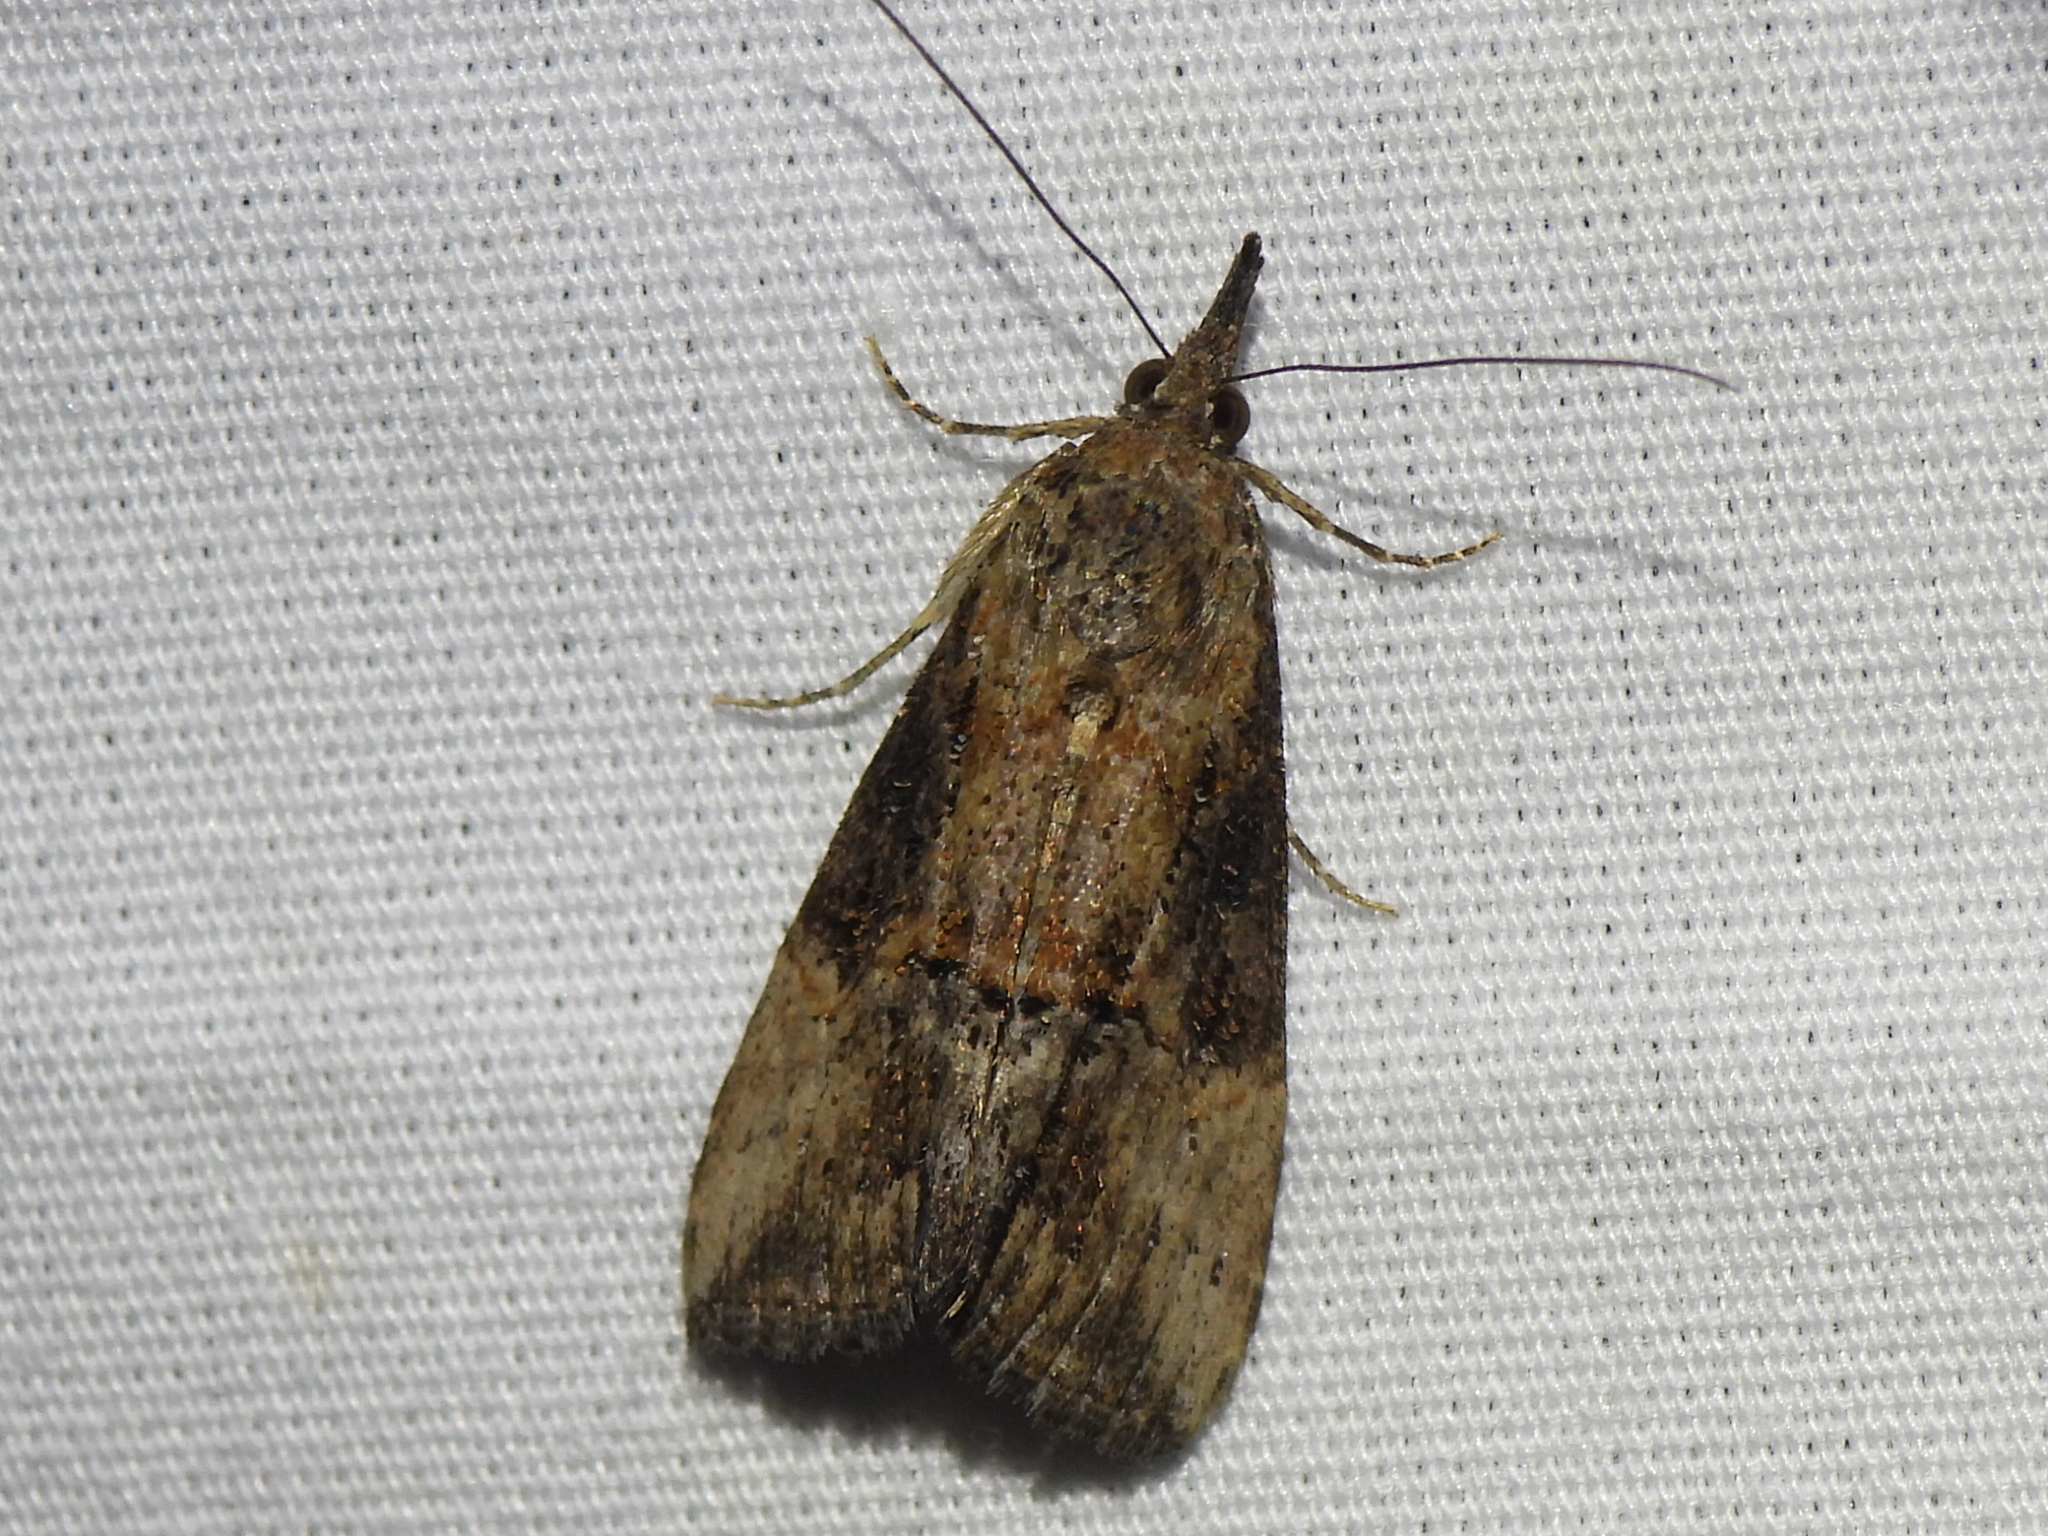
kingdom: Animalia
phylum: Arthropoda
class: Insecta
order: Lepidoptera
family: Erebidae
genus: Hypena
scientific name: Hypena scabra
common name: Green cloverworm
